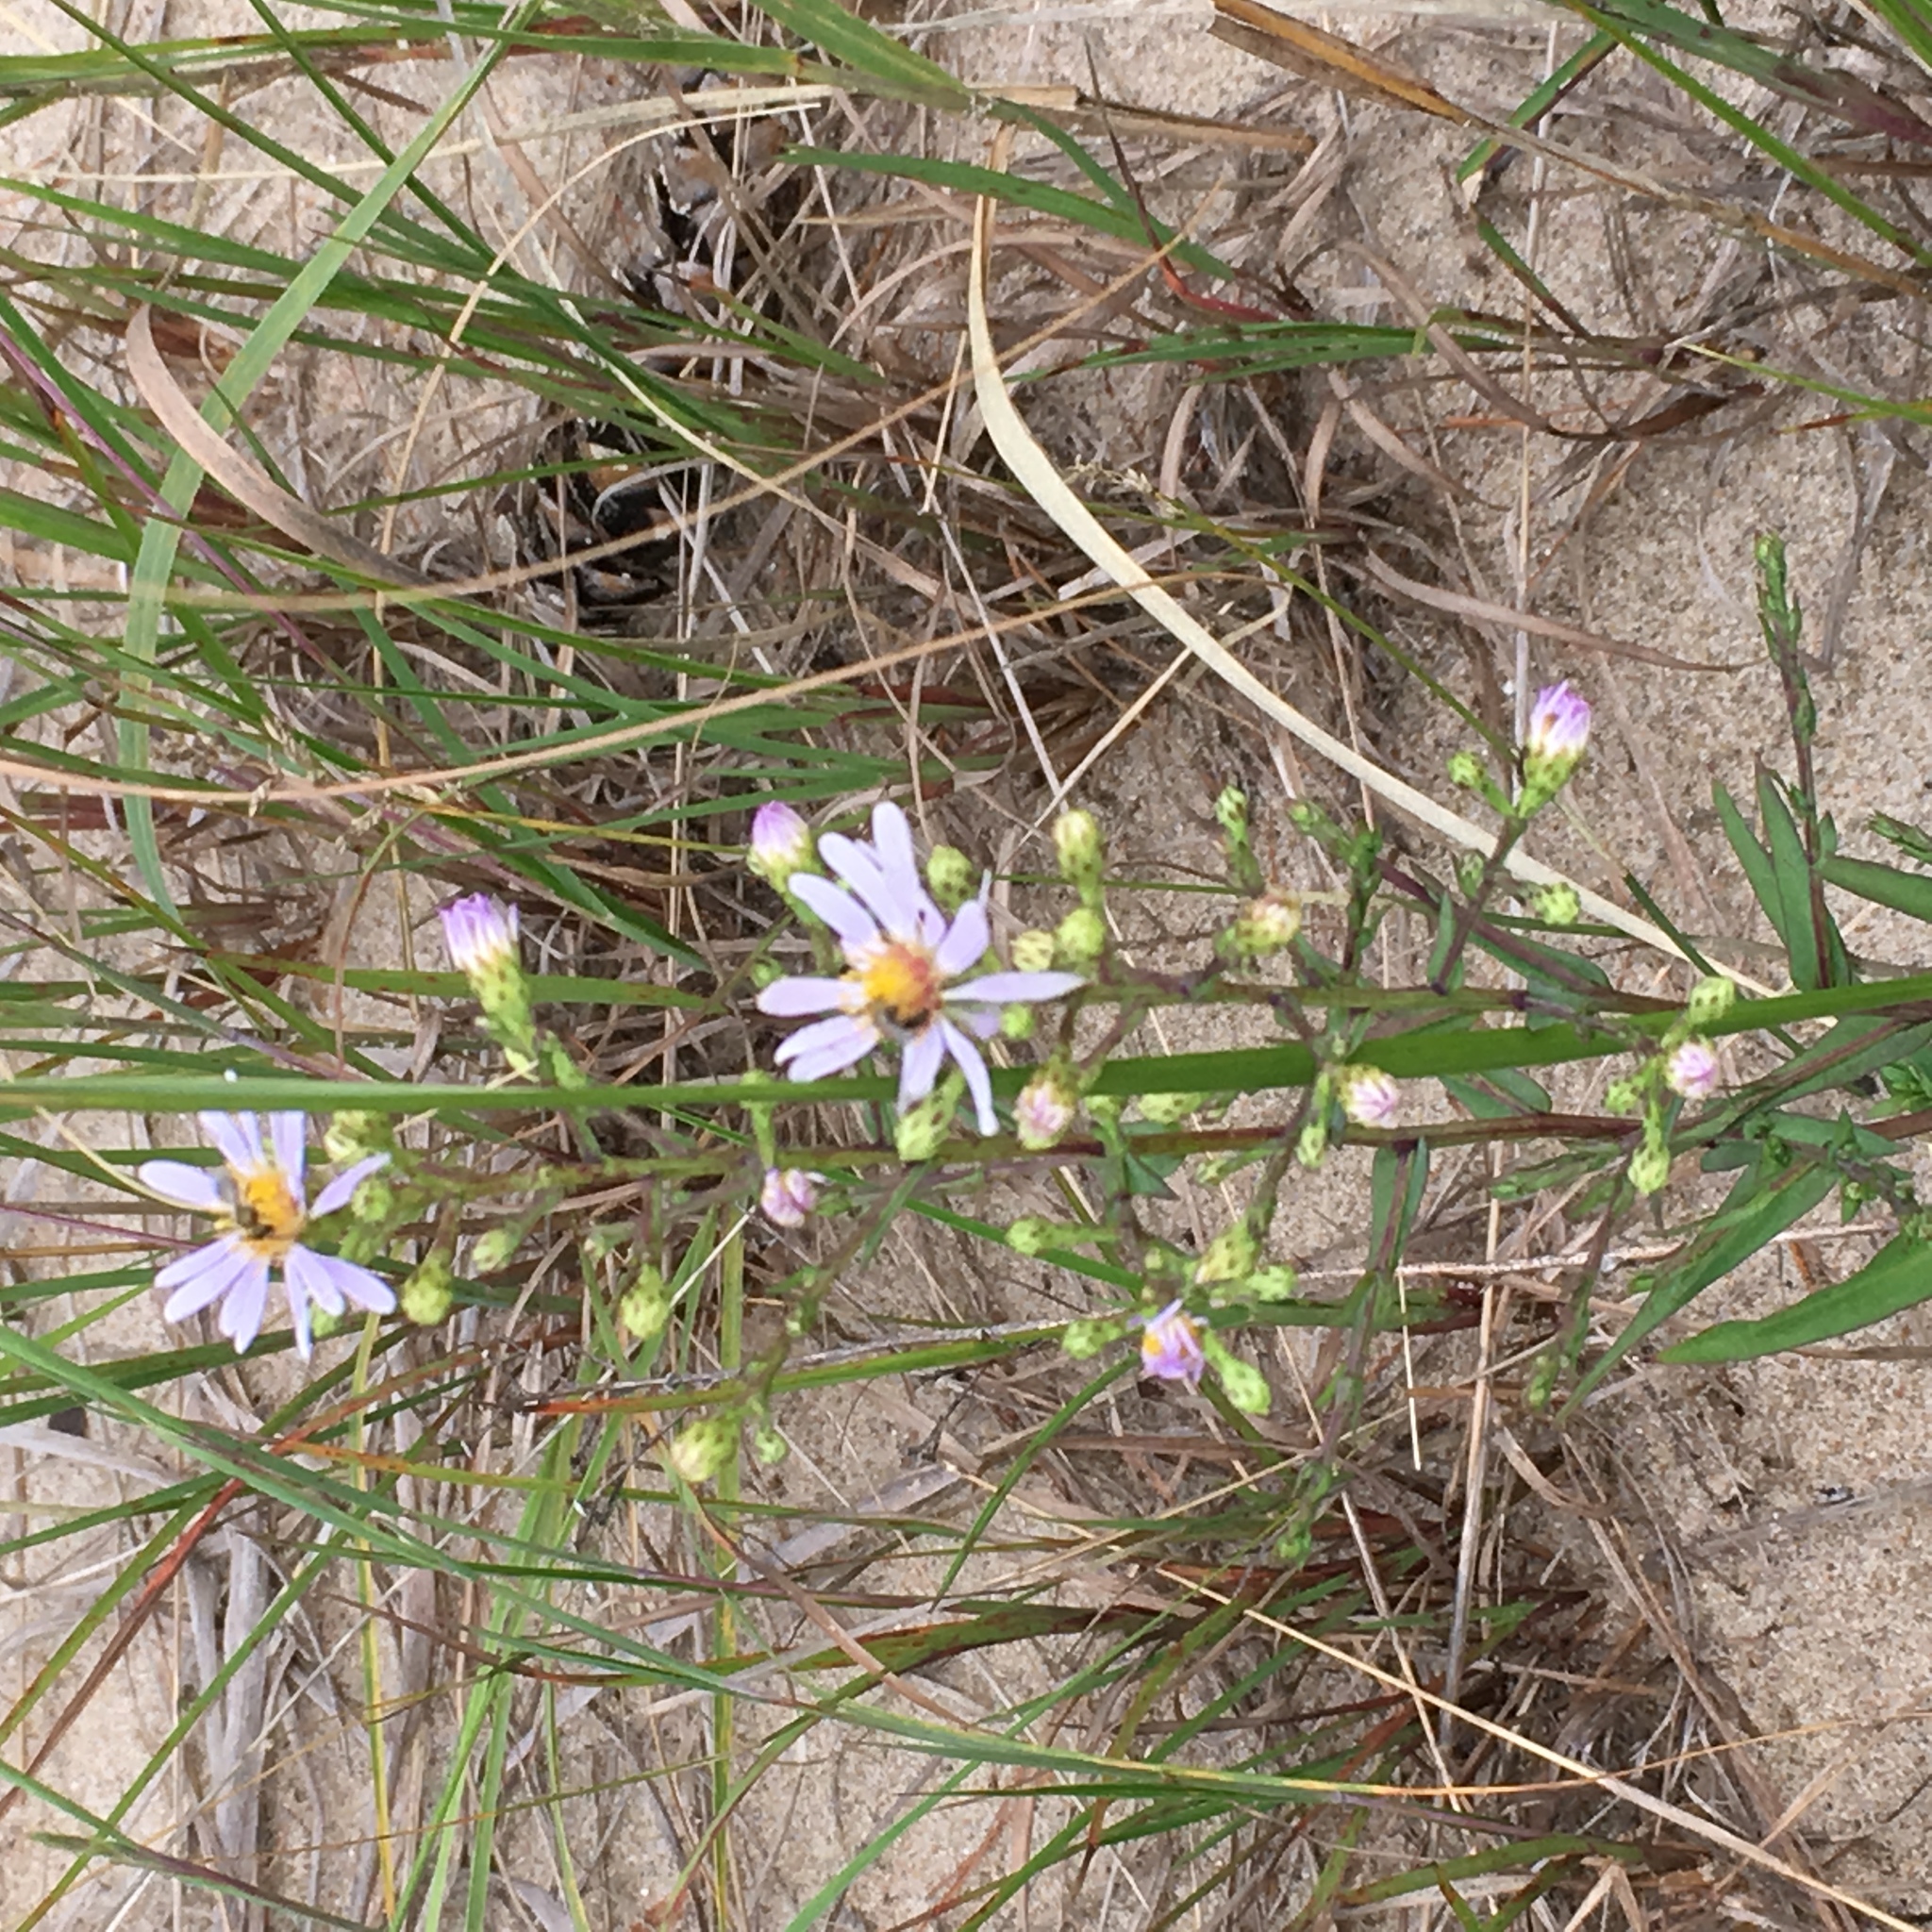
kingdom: Plantae
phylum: Tracheophyta
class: Magnoliopsida
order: Asterales
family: Asteraceae
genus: Symphyotrichum
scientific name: Symphyotrichum laeve
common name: Glaucous aster
